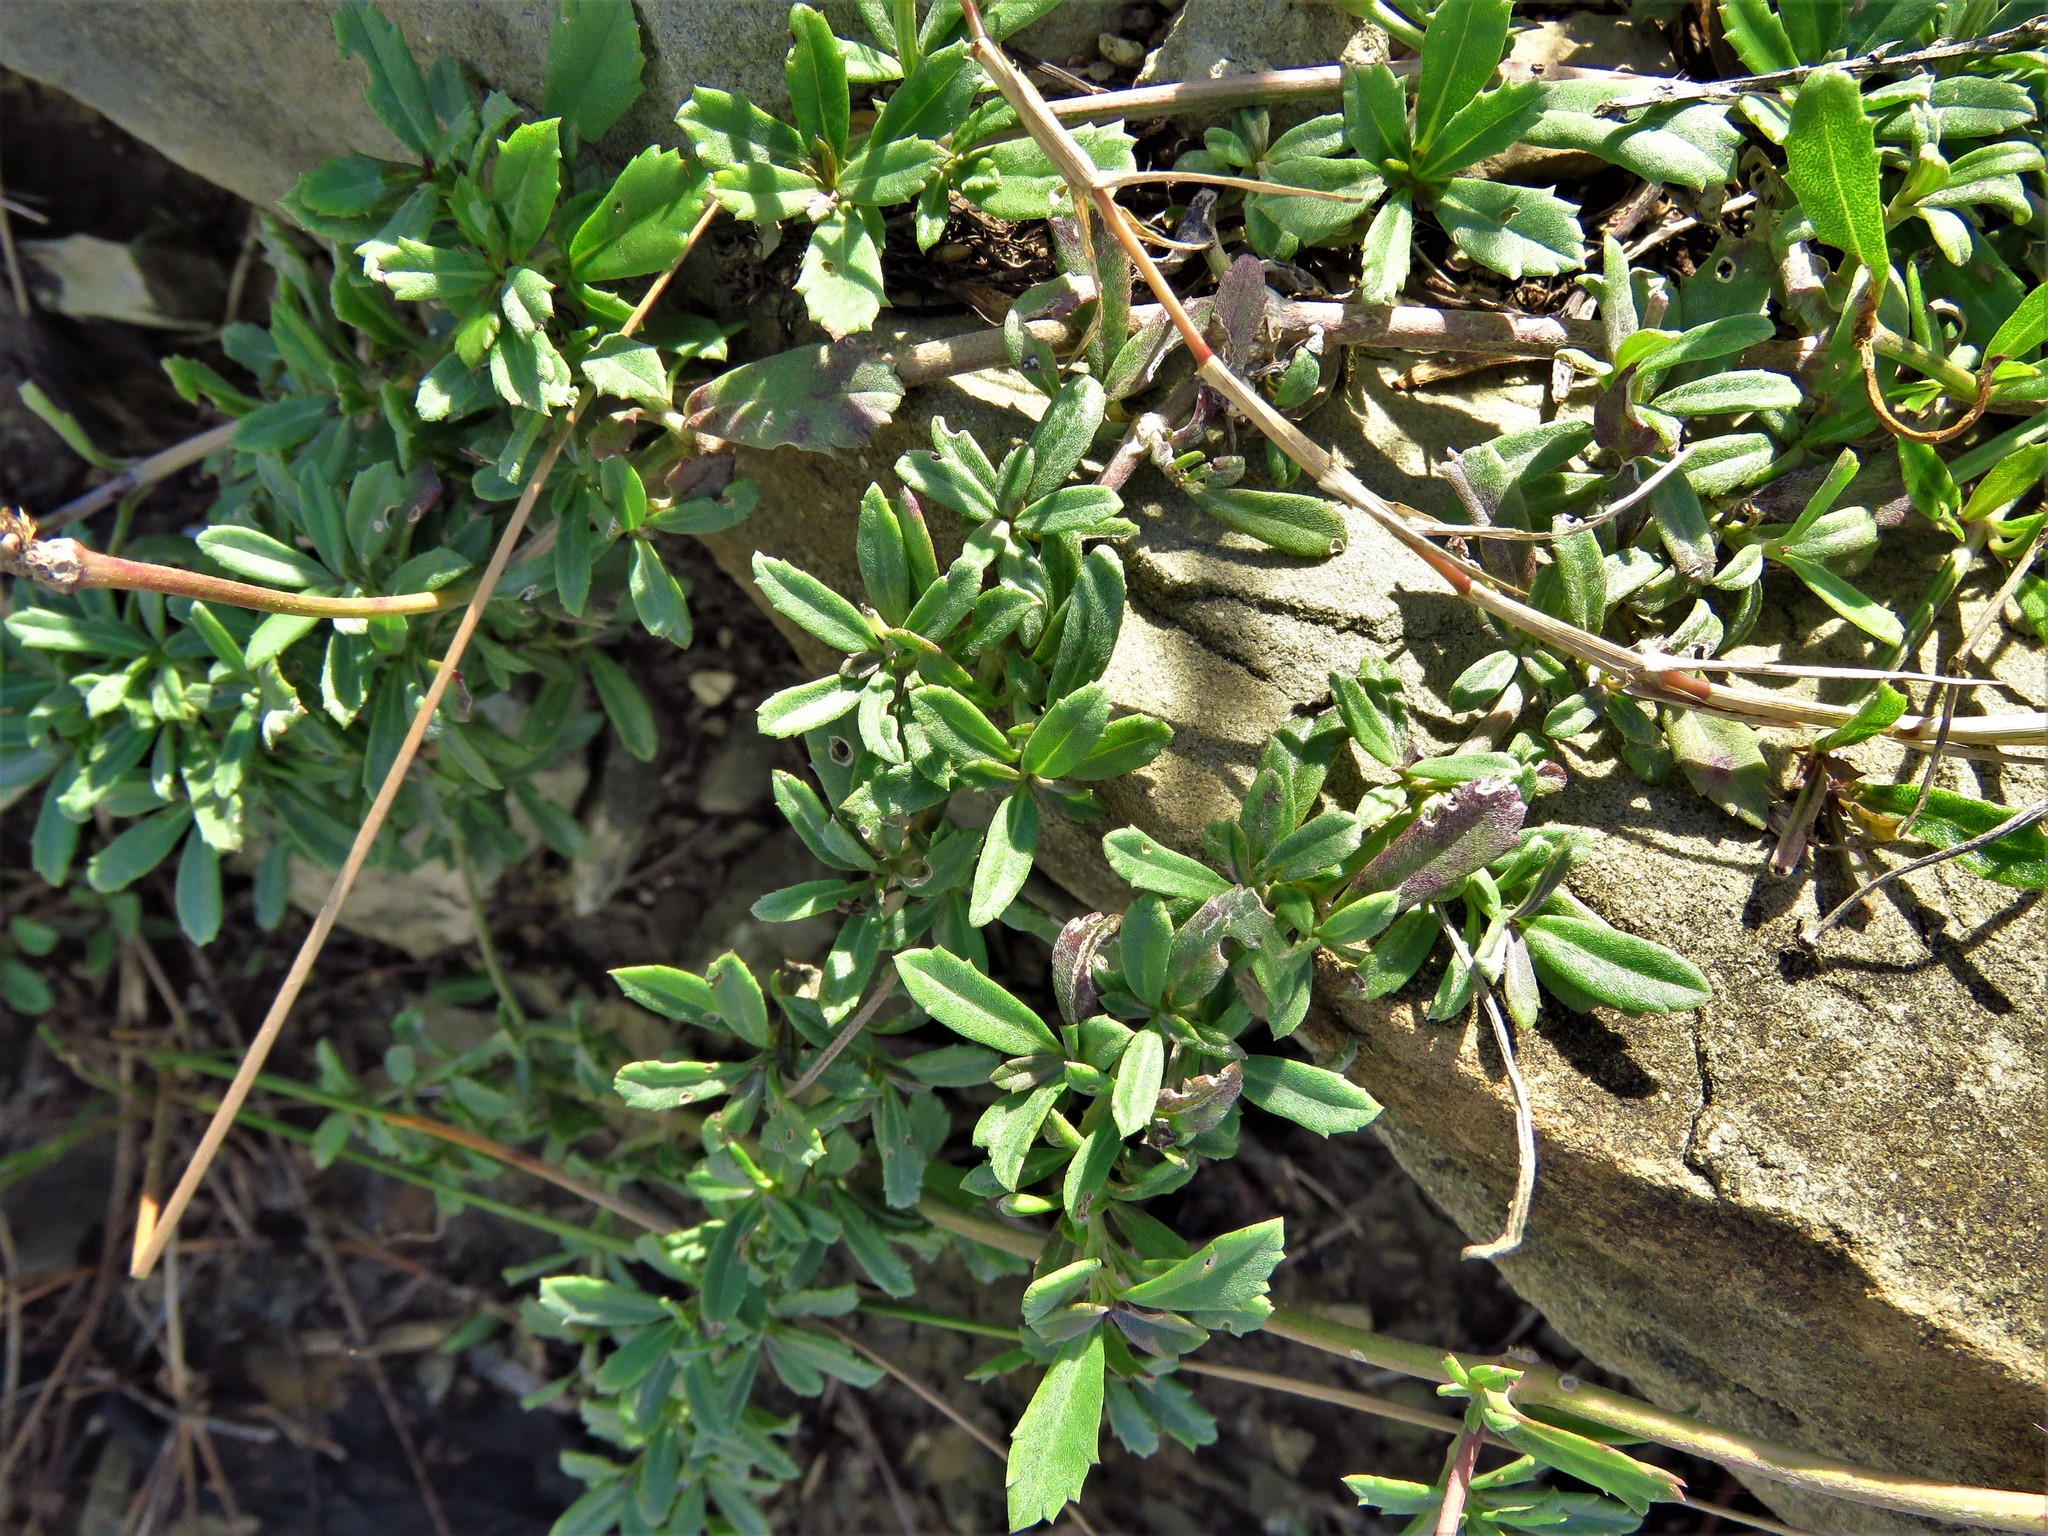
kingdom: Plantae
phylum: Tracheophyta
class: Magnoliopsida
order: Lamiales
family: Verbenaceae
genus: Phyla
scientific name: Phyla nodiflora
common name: Frogfruit
